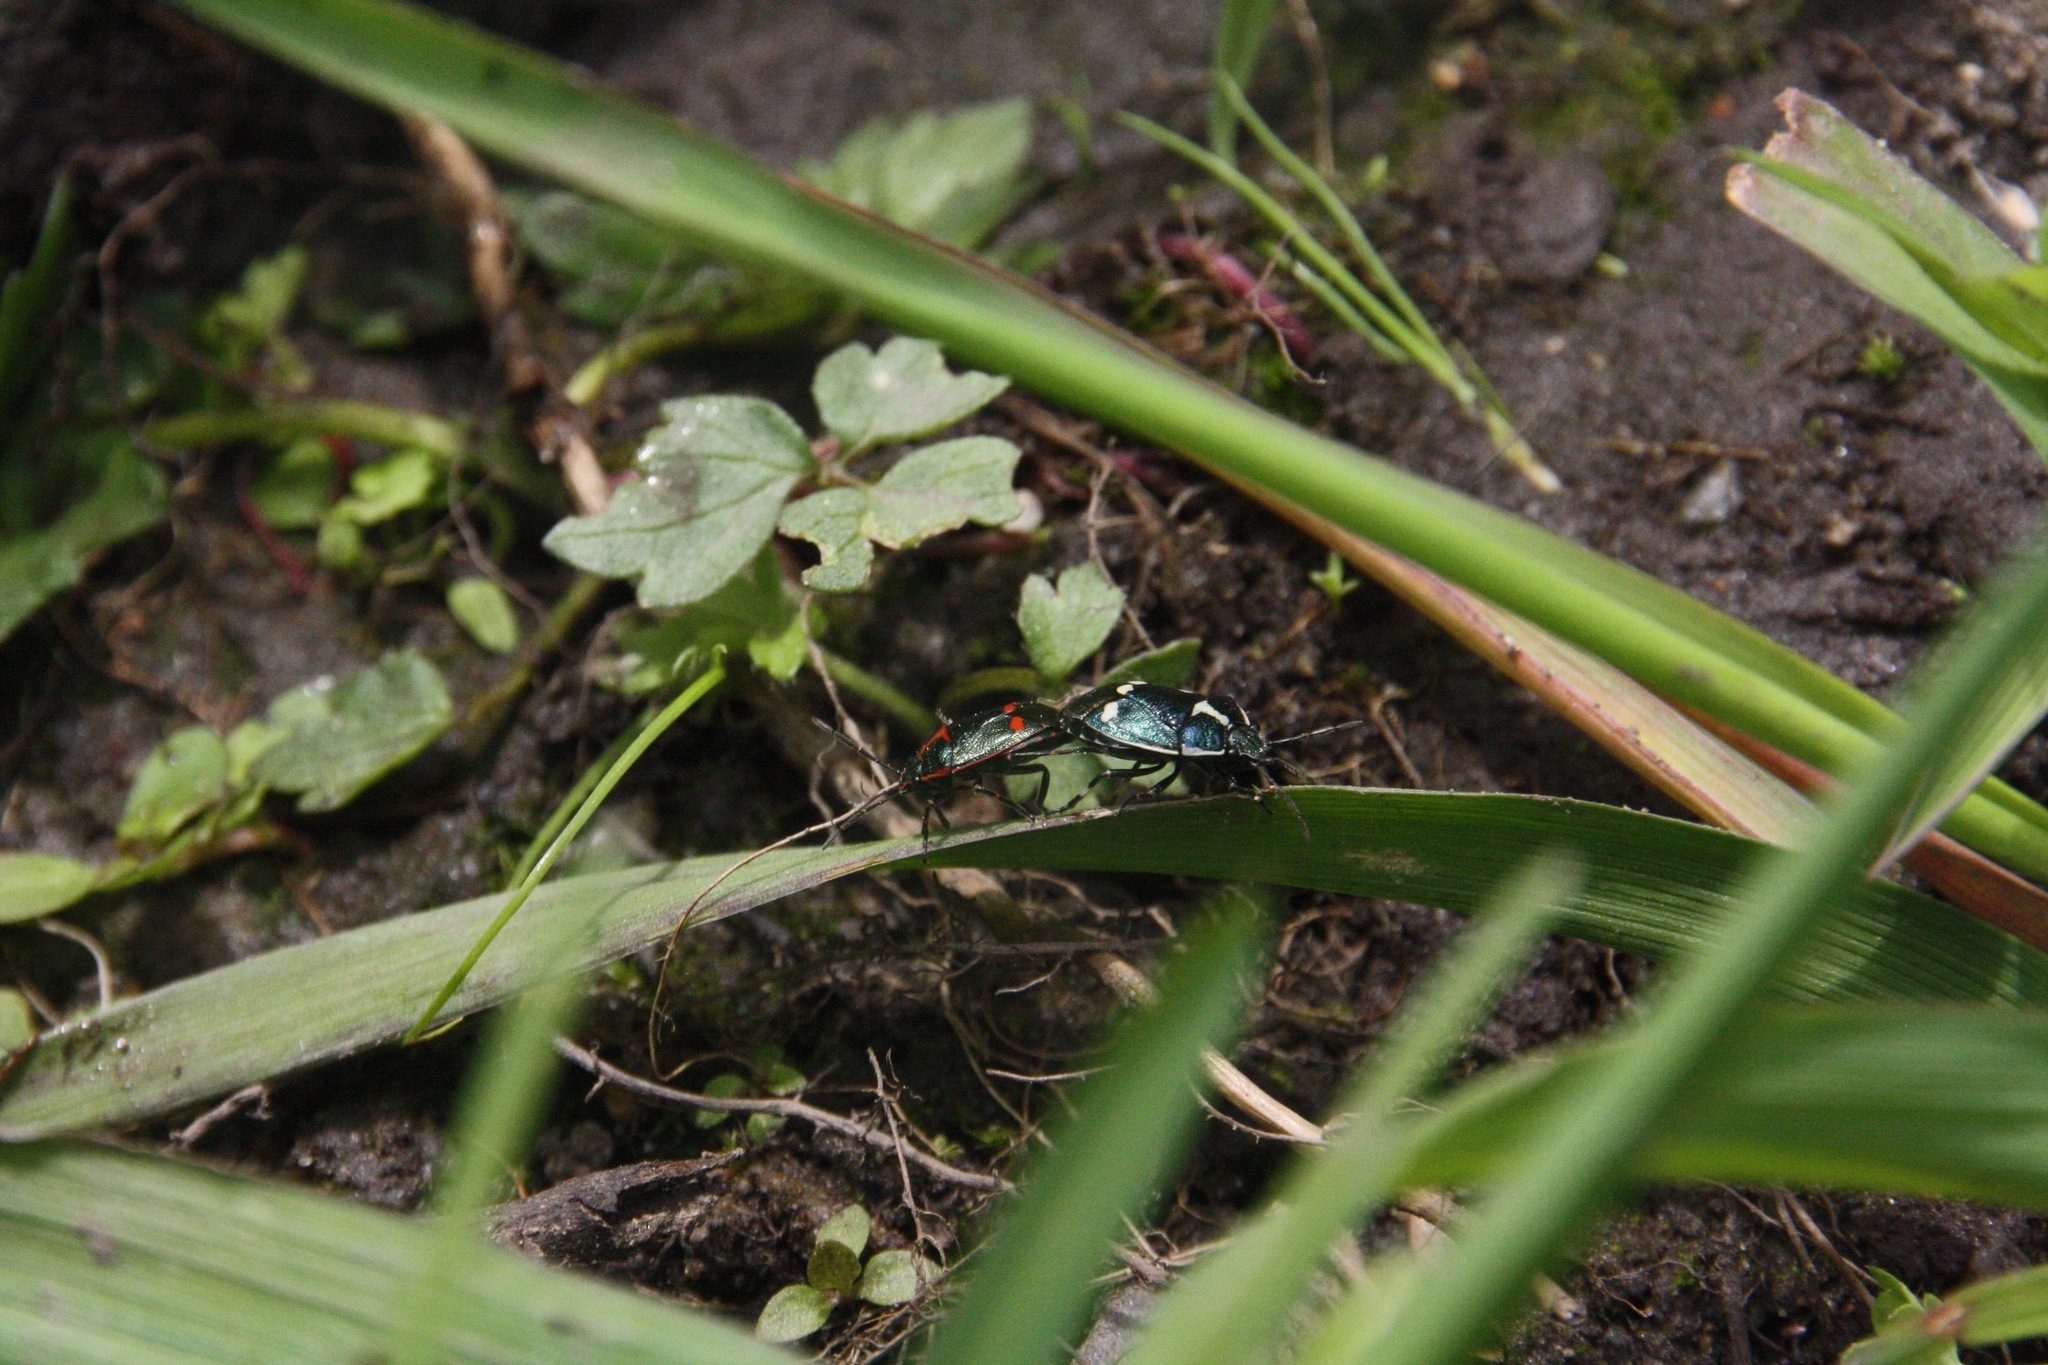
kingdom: Animalia
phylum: Arthropoda
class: Insecta
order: Hemiptera
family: Pentatomidae
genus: Eurydema
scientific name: Eurydema oleracea
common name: Cabbage bug
